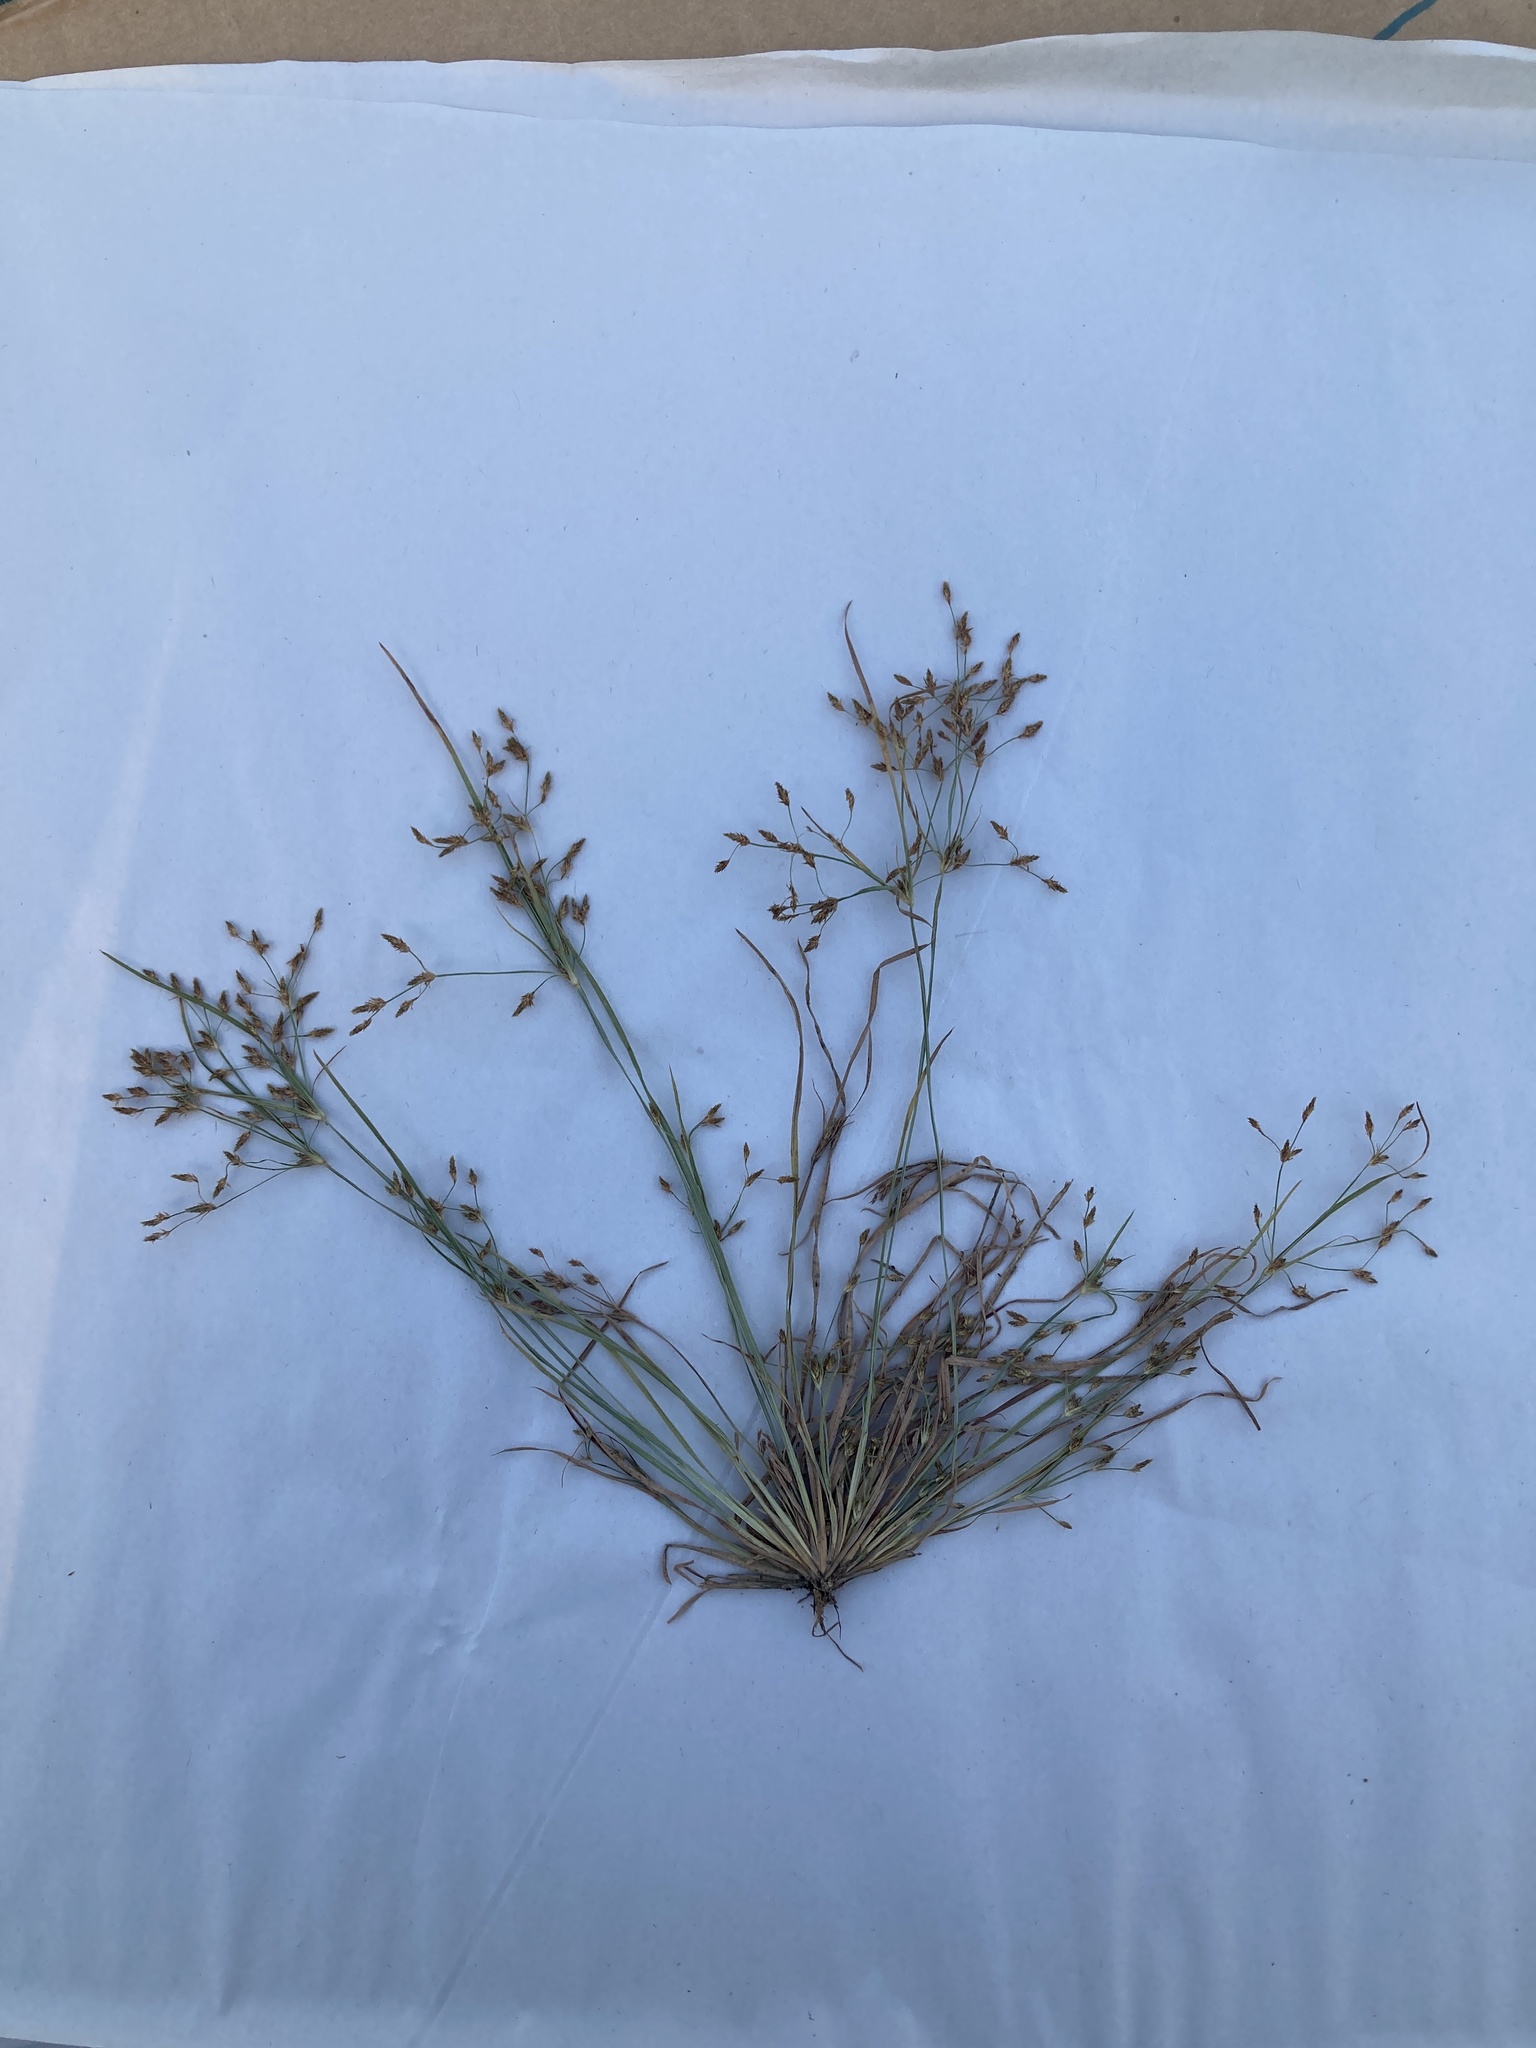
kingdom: Plantae
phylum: Tracheophyta
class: Liliopsida
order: Poales
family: Cyperaceae
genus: Fimbristylis
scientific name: Fimbristylis autumnalis
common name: Slender fimbristylis
